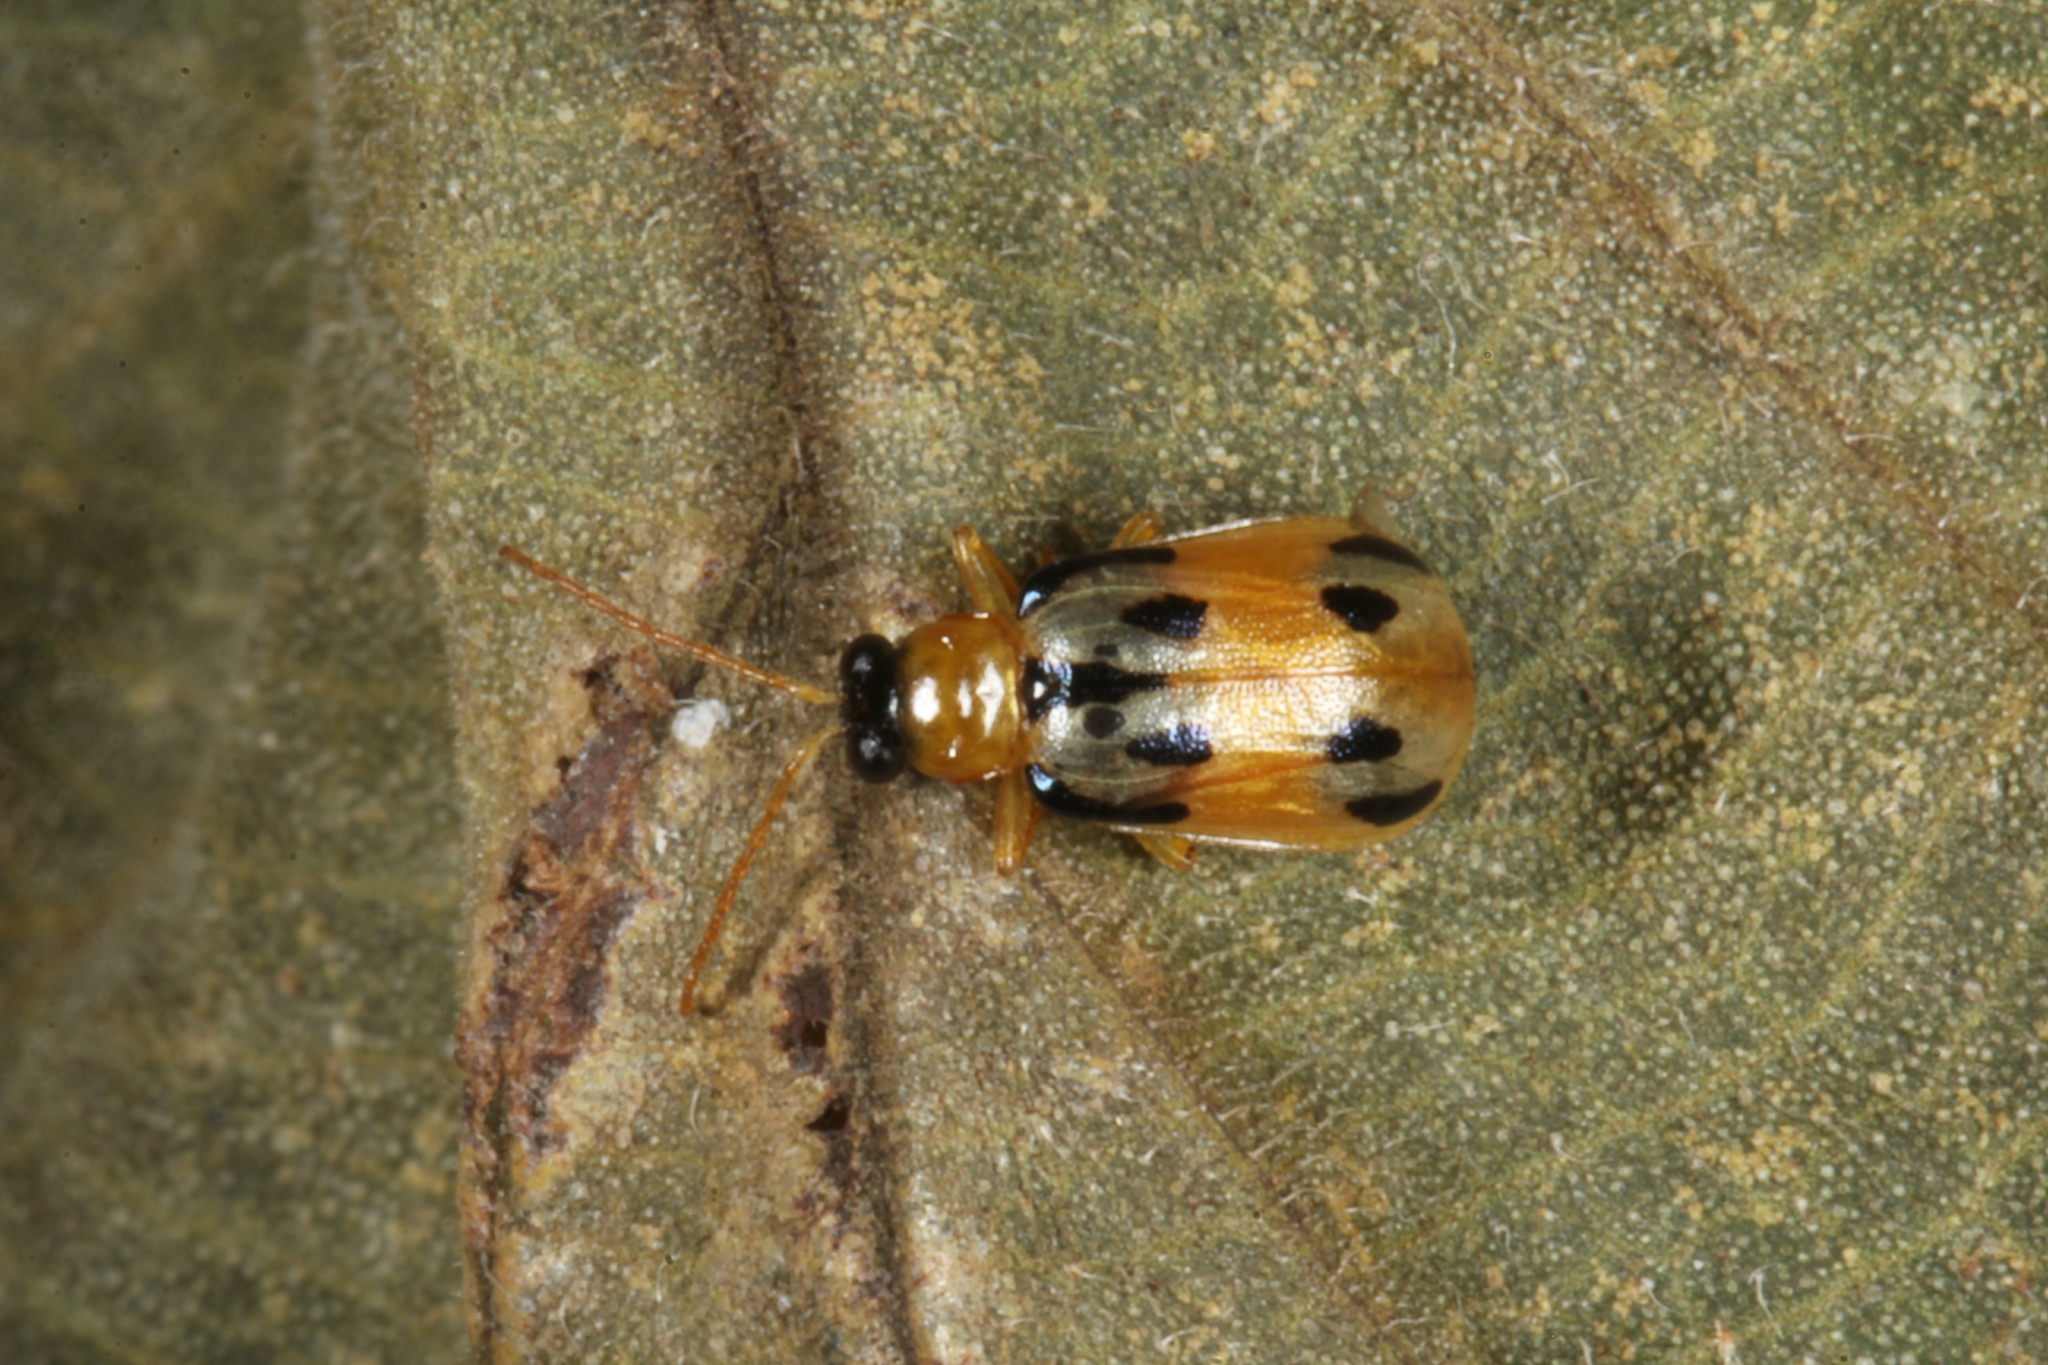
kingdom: Animalia
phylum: Arthropoda
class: Insecta
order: Coleoptera
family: Chrysomelidae
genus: Diabrotica
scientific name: Diabrotica
